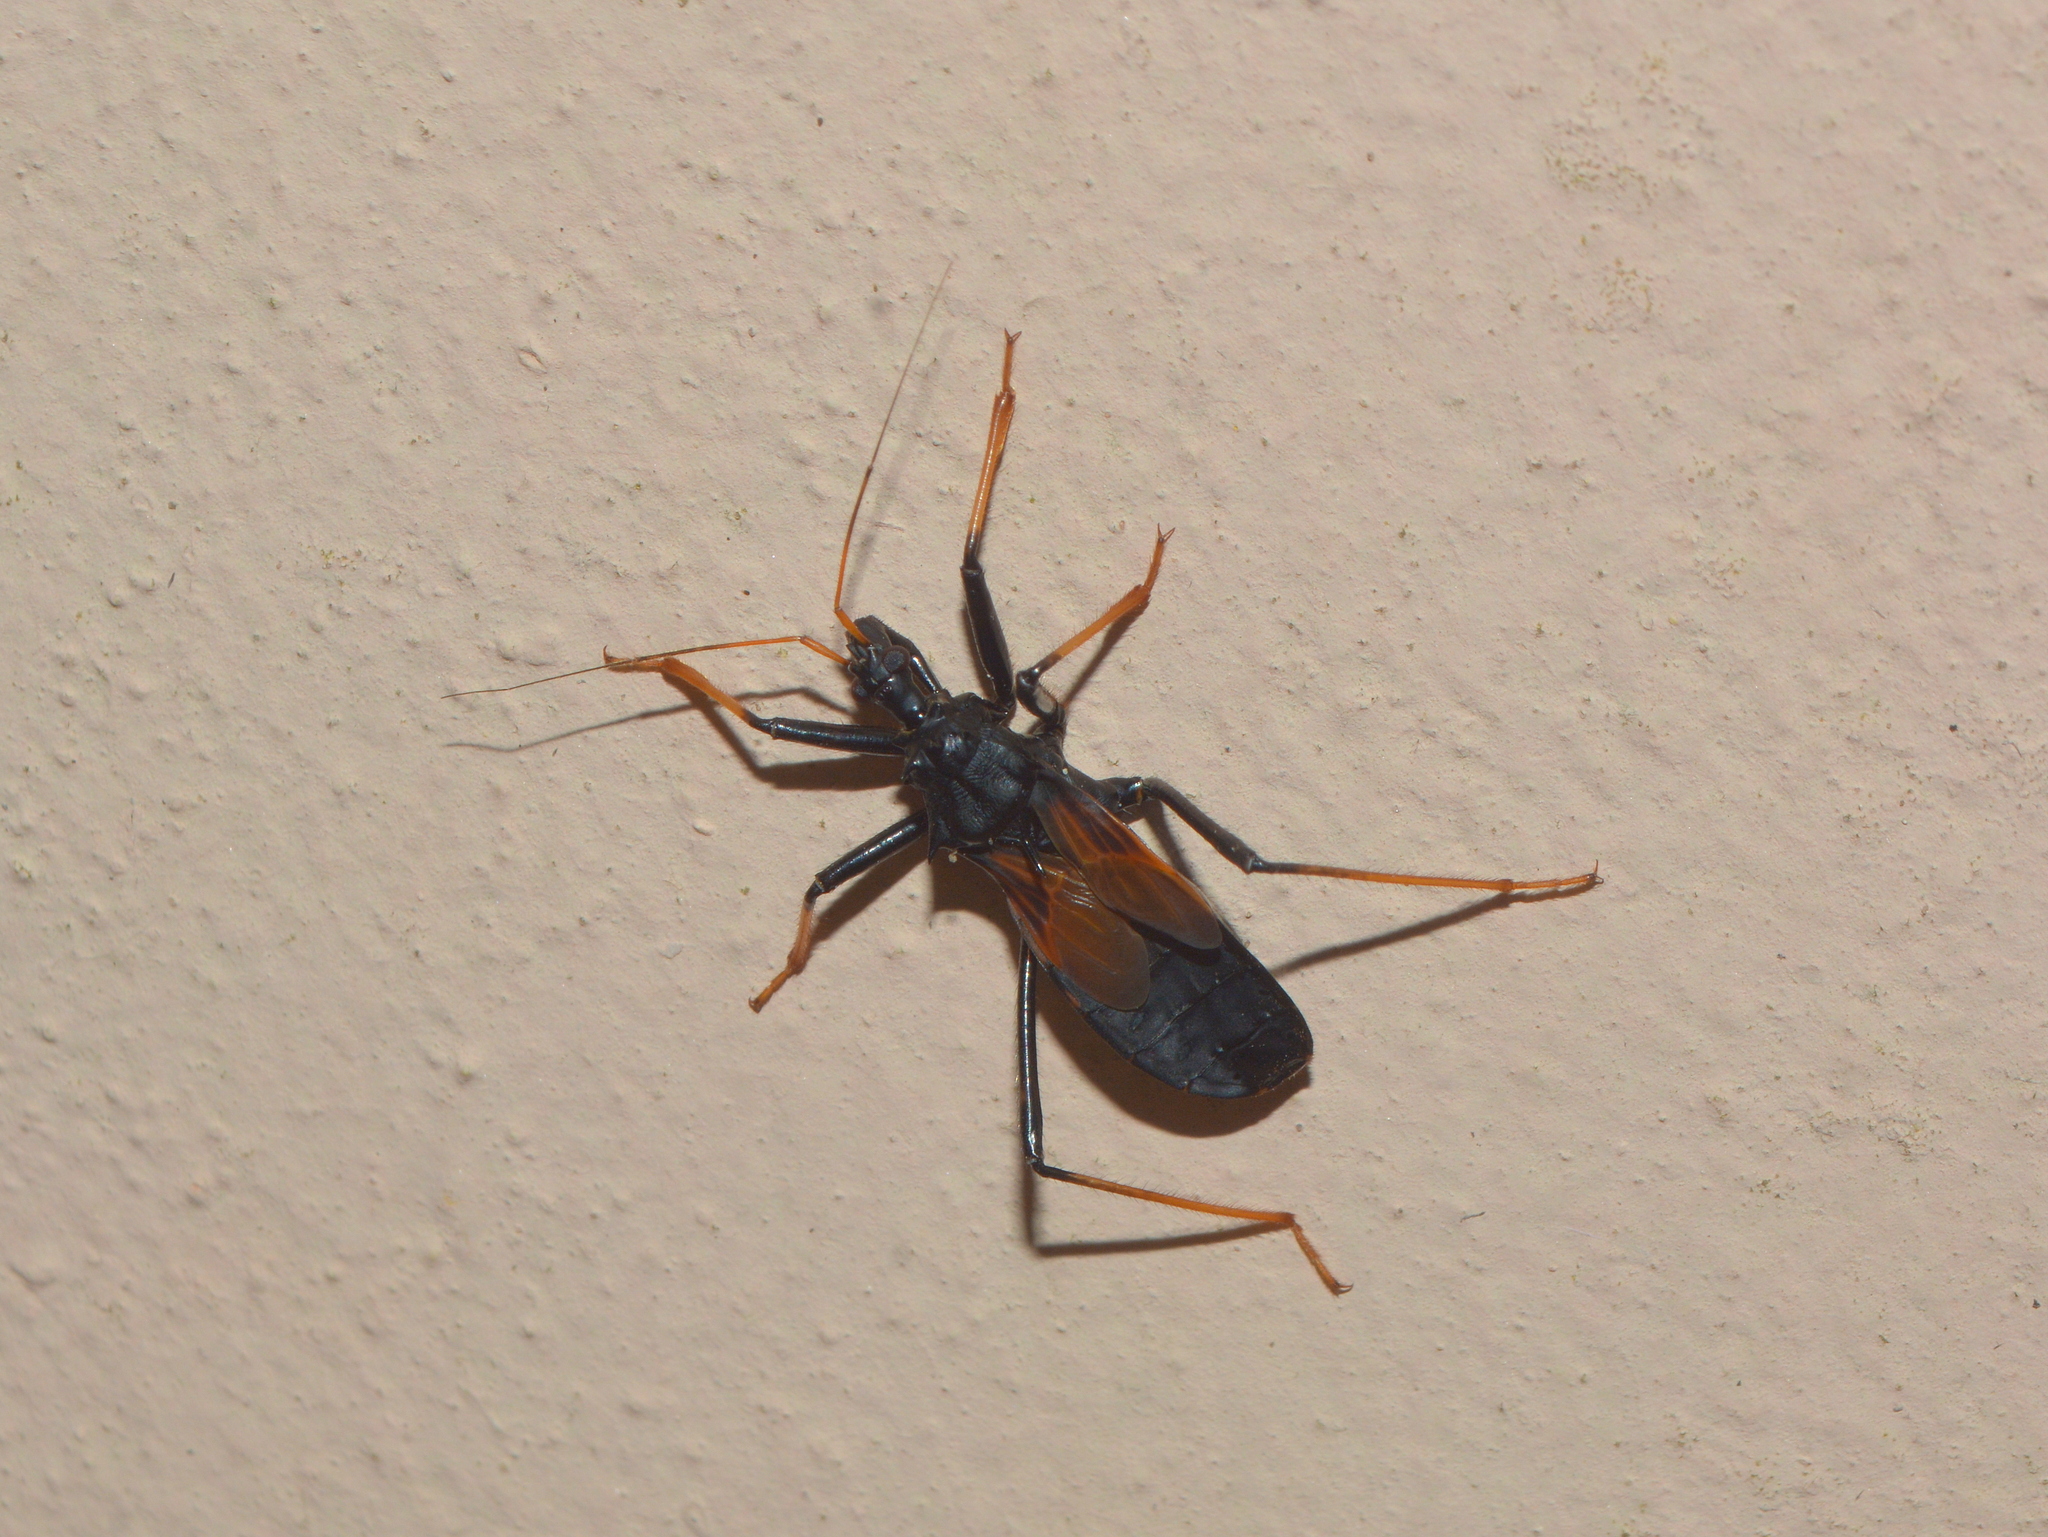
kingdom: Animalia
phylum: Arthropoda
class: Insecta
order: Hemiptera
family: Reduviidae
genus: Zelurus
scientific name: Zelurus femoralis
